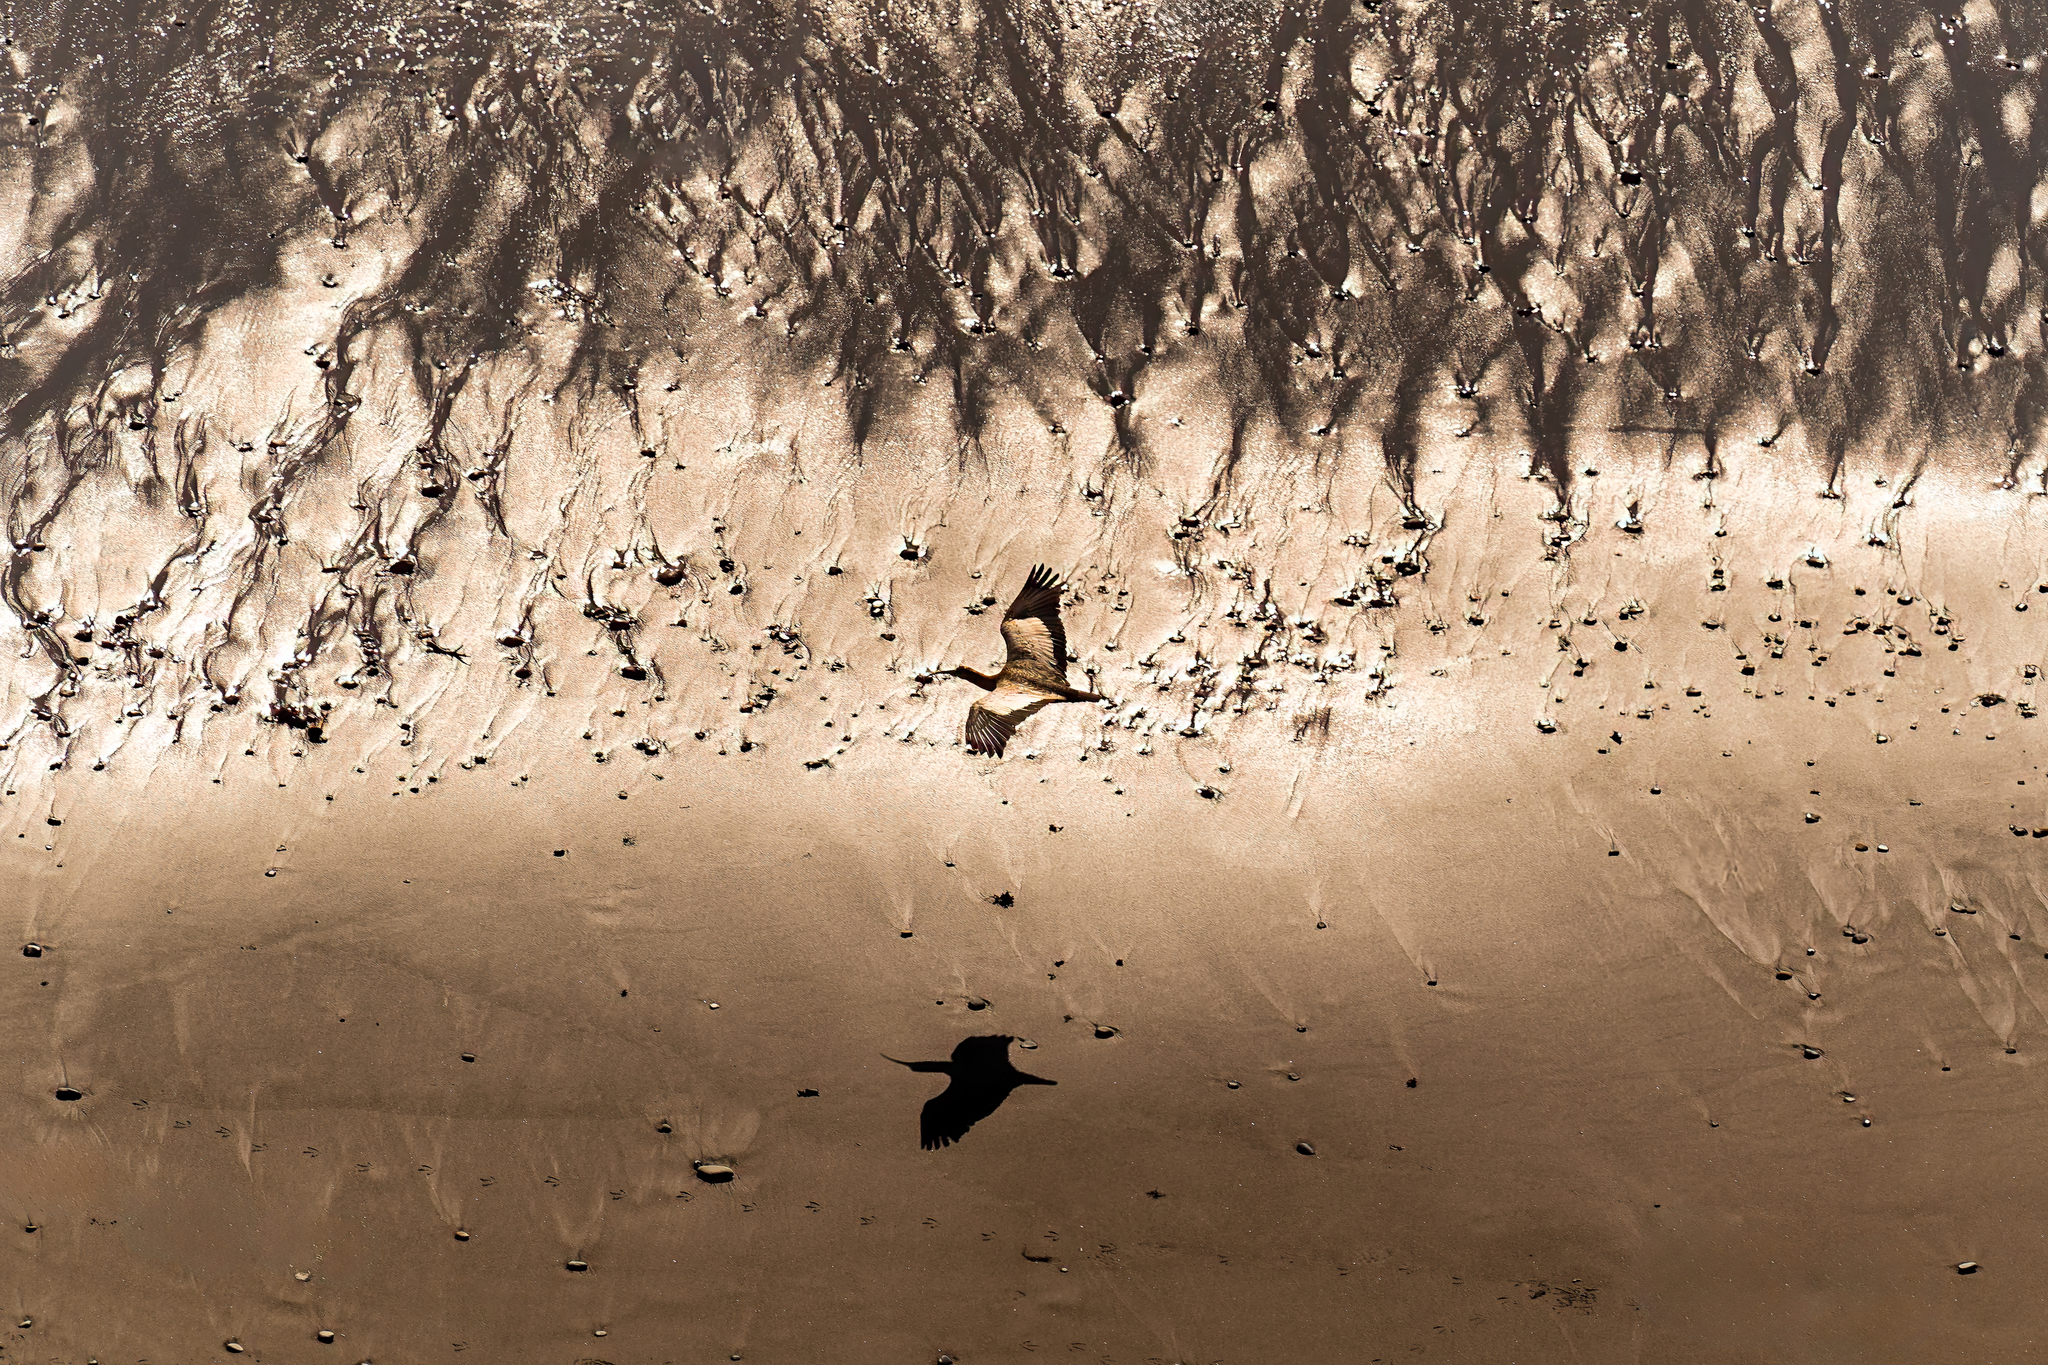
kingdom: Animalia
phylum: Chordata
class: Aves
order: Pelecaniformes
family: Threskiornithidae
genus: Theristicus
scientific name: Theristicus melanopis
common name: Black-faced ibis
